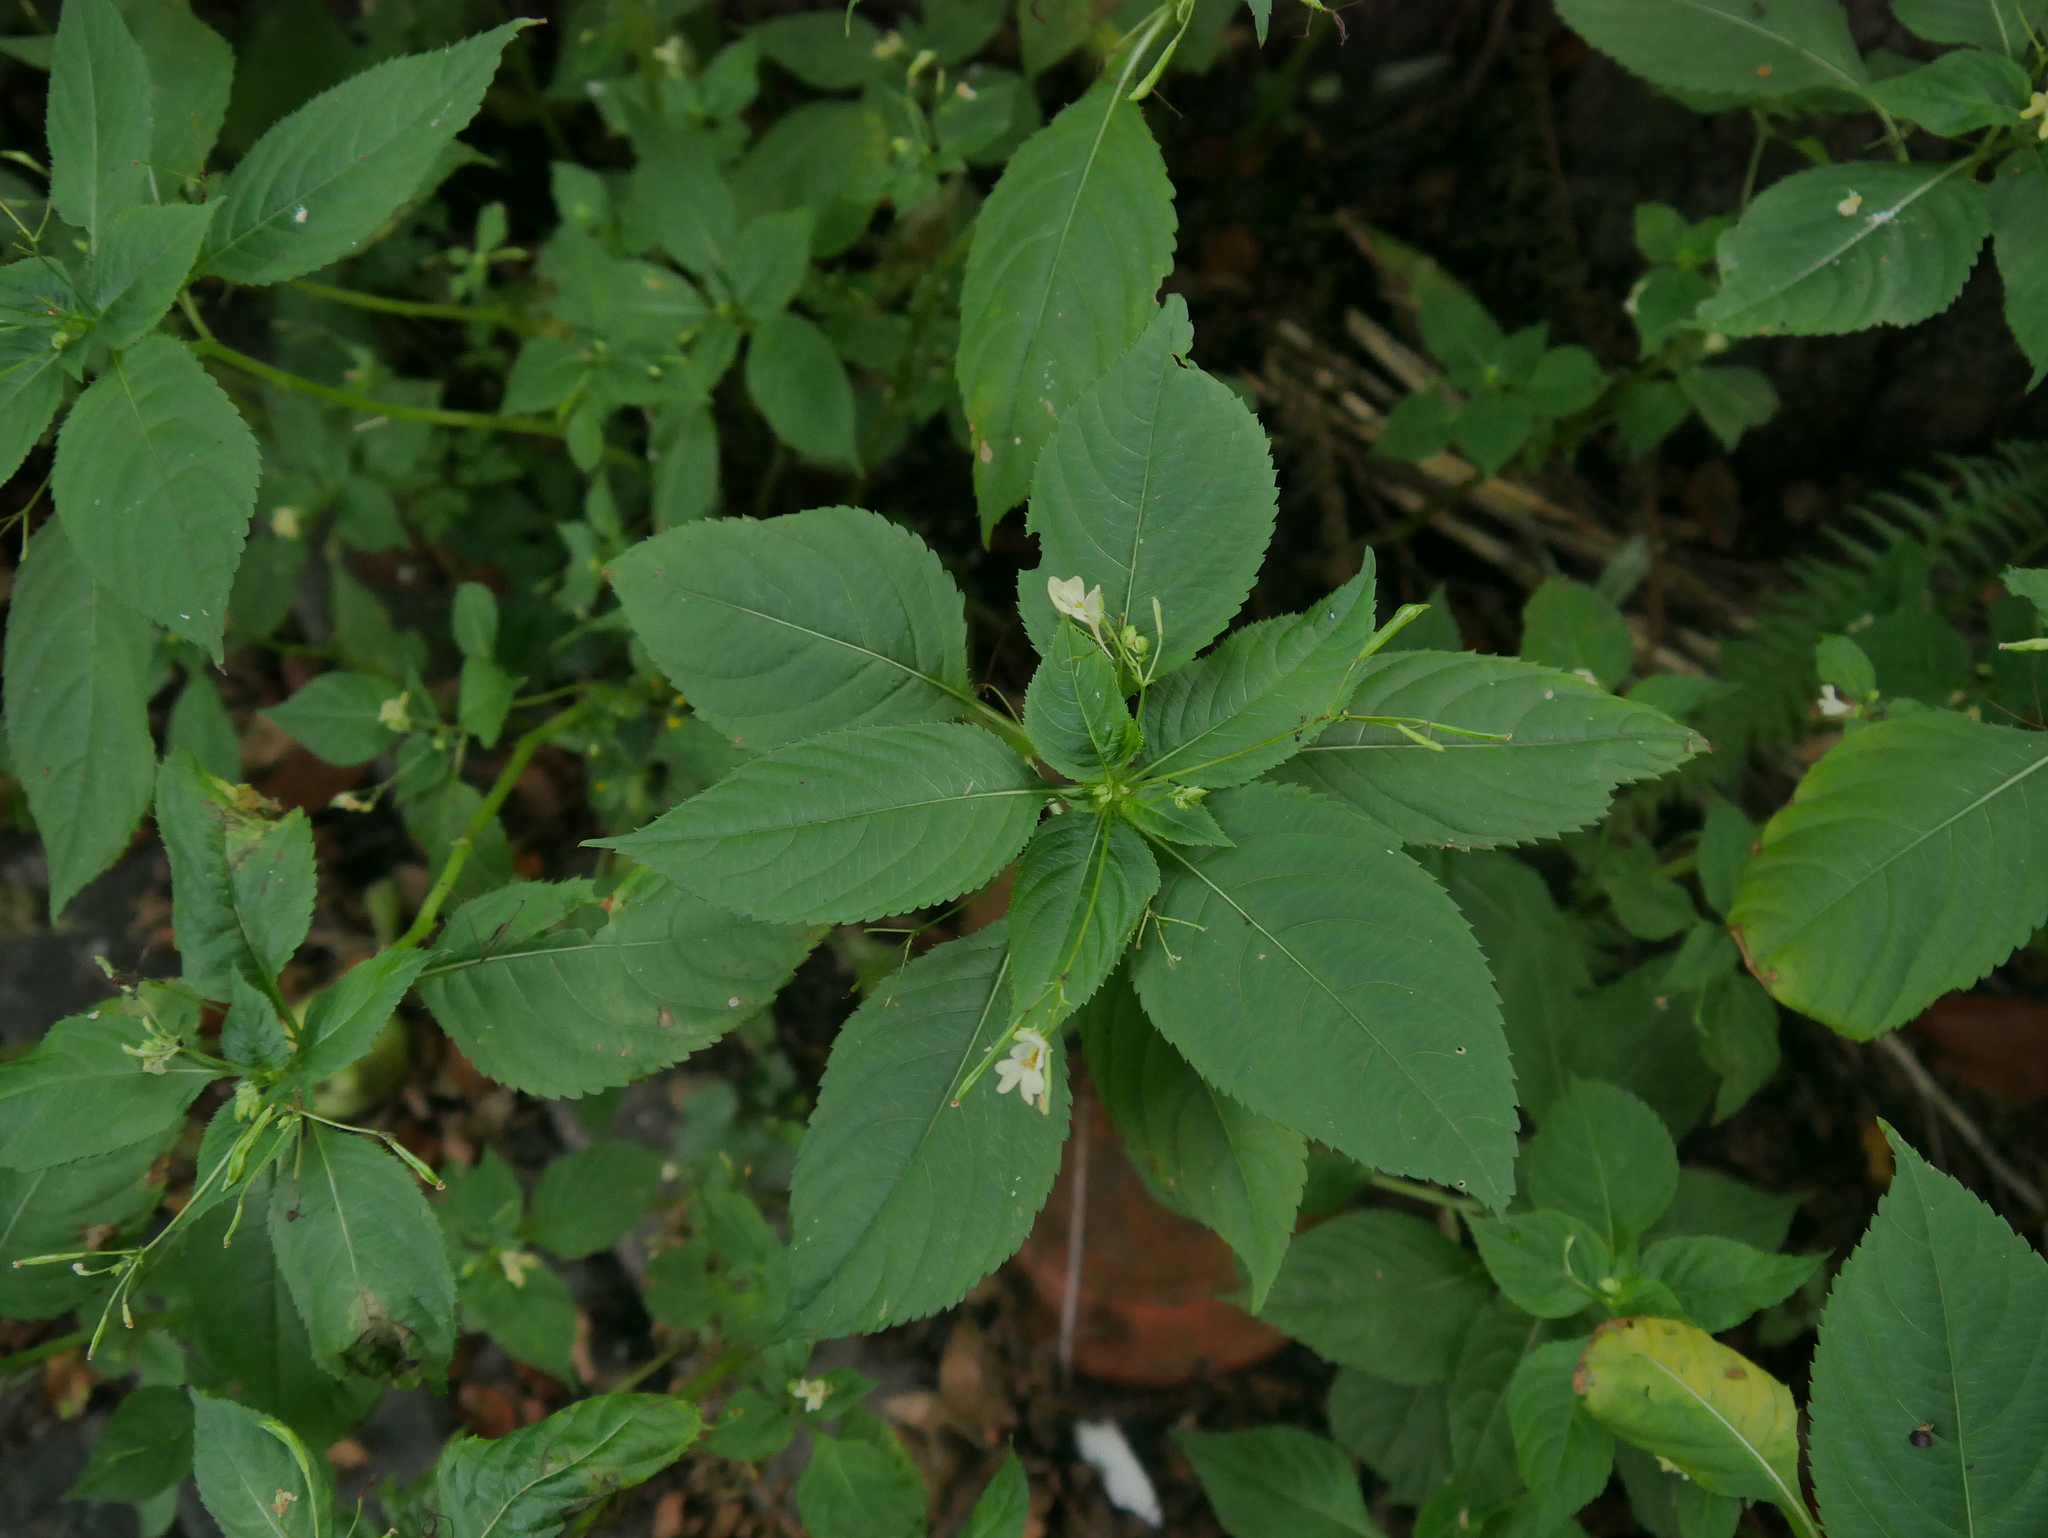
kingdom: Plantae
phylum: Tracheophyta
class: Magnoliopsida
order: Ericales
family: Balsaminaceae
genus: Impatiens
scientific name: Impatiens parviflora
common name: Small balsam
